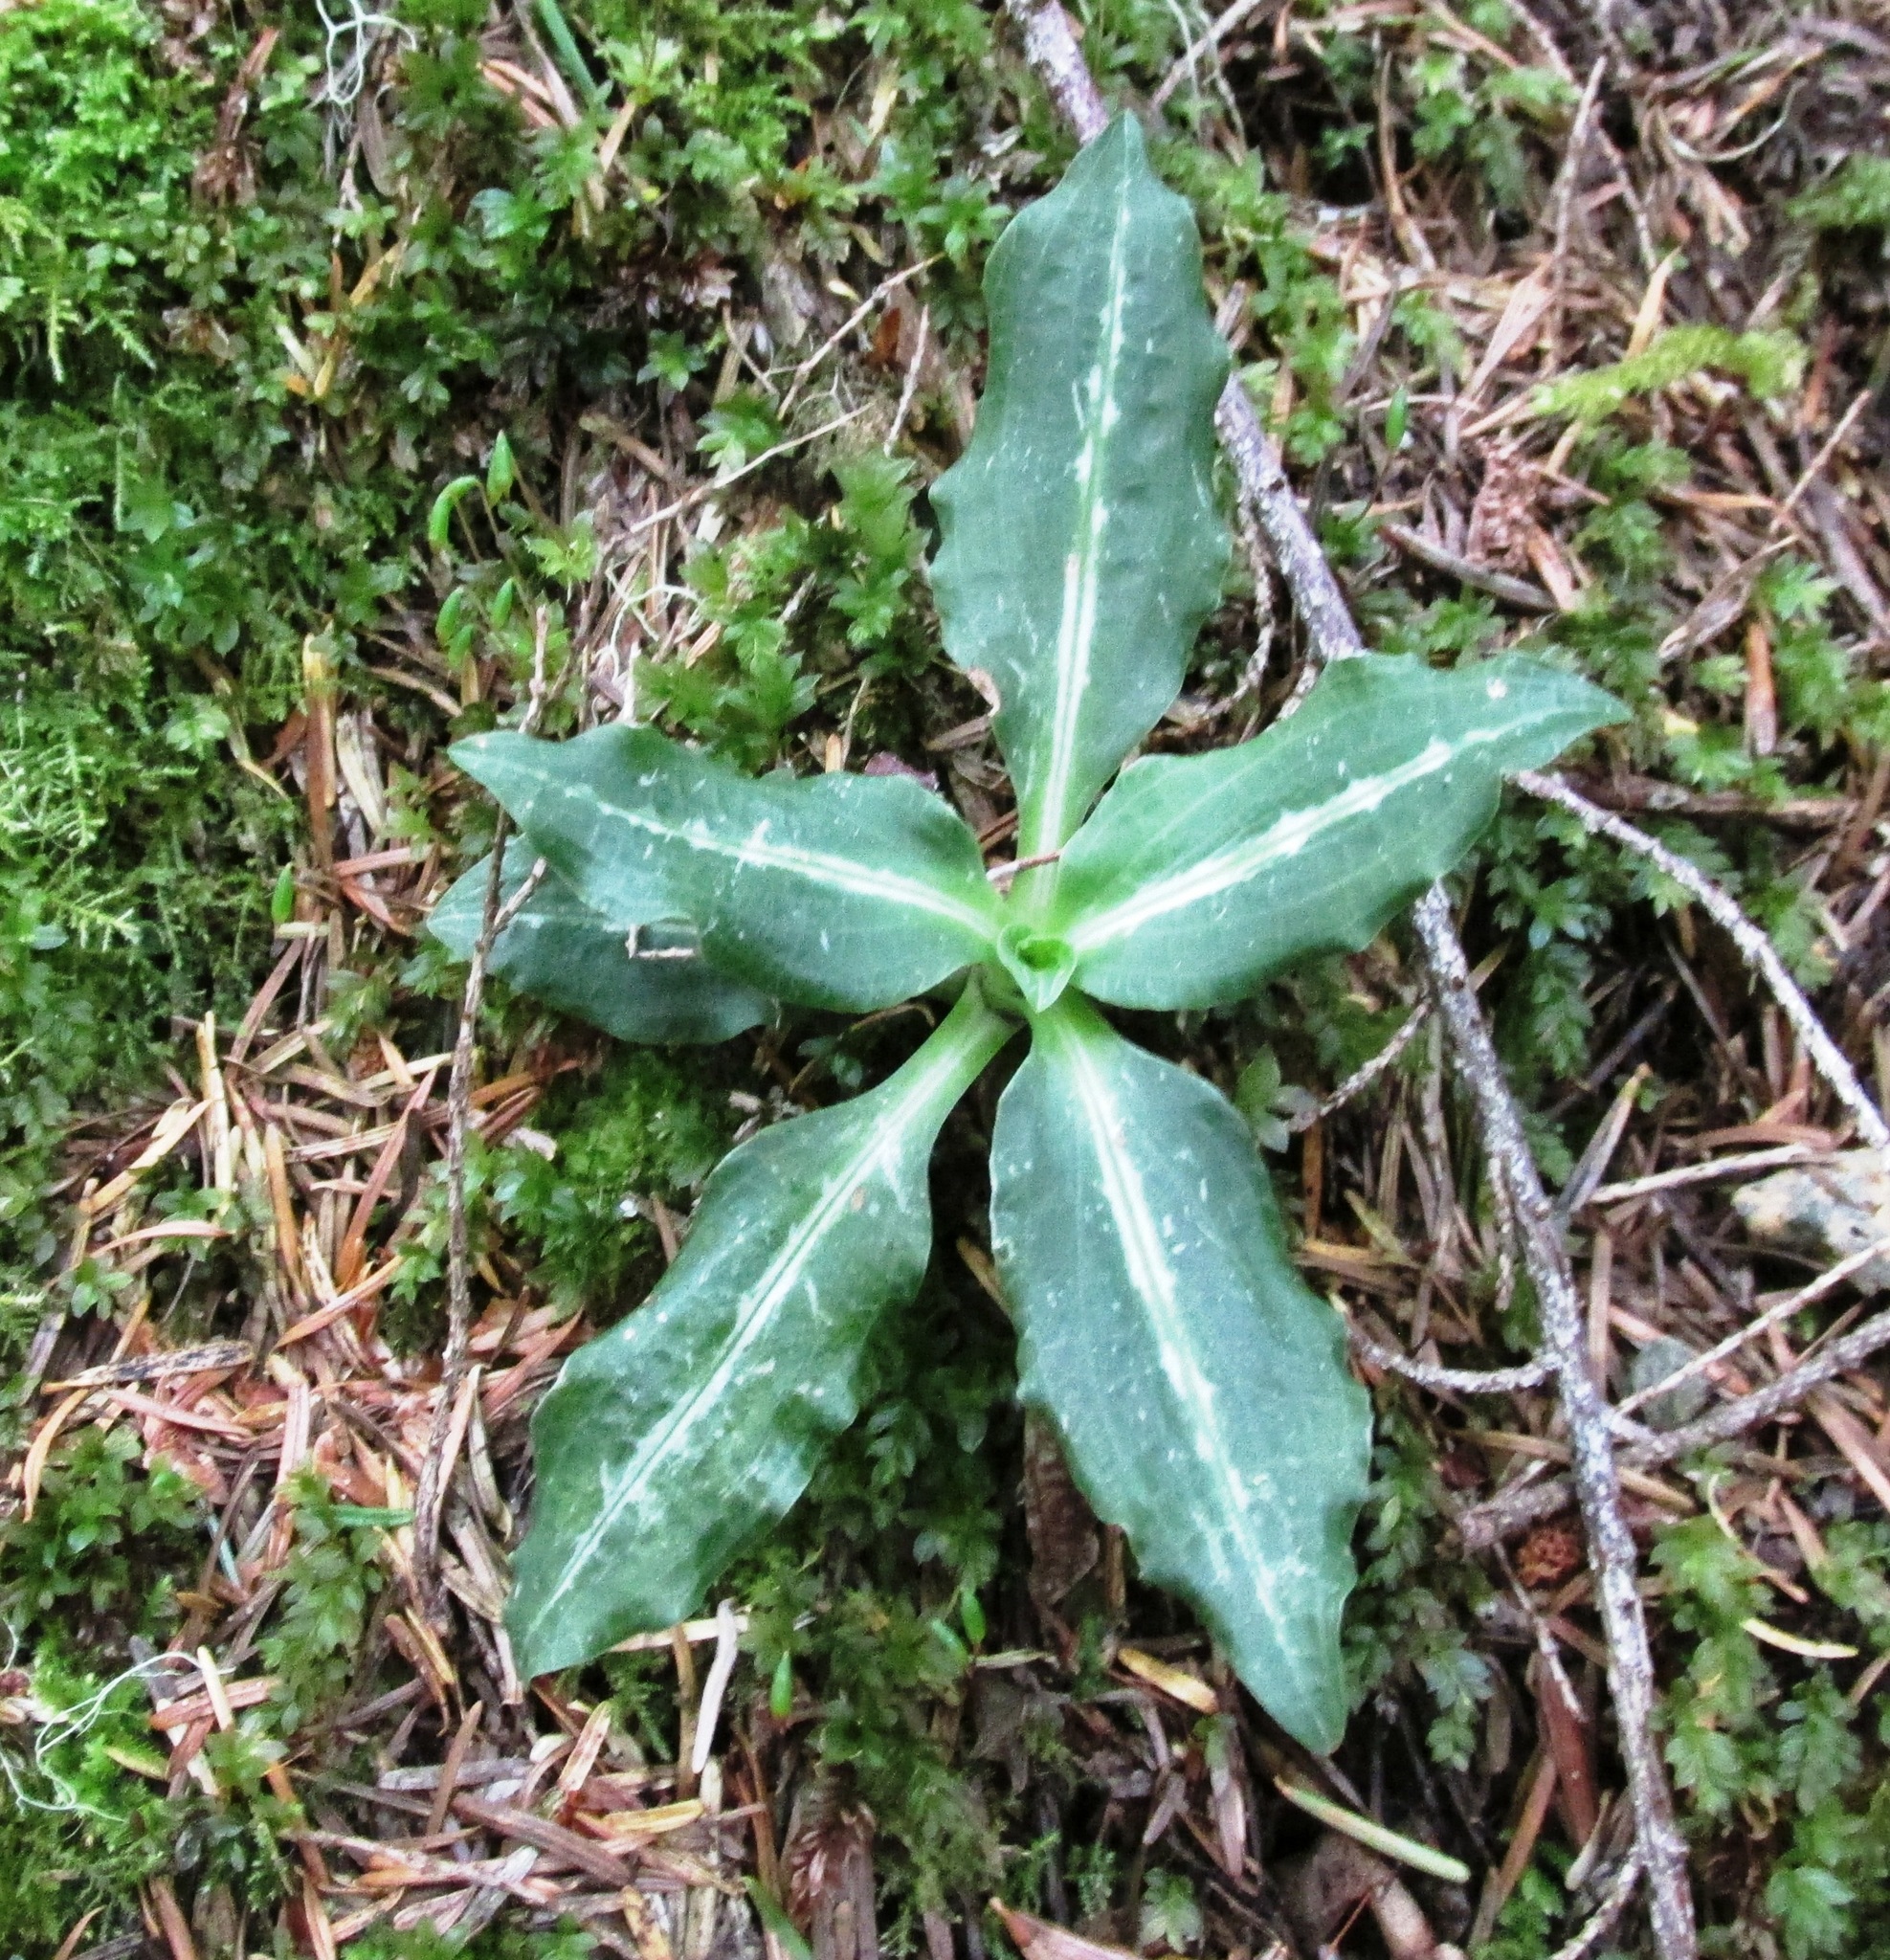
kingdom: Plantae
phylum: Tracheophyta
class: Liliopsida
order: Asparagales
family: Orchidaceae
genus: Goodyera
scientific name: Goodyera oblongifolia
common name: Giant rattlesnake-plantain
